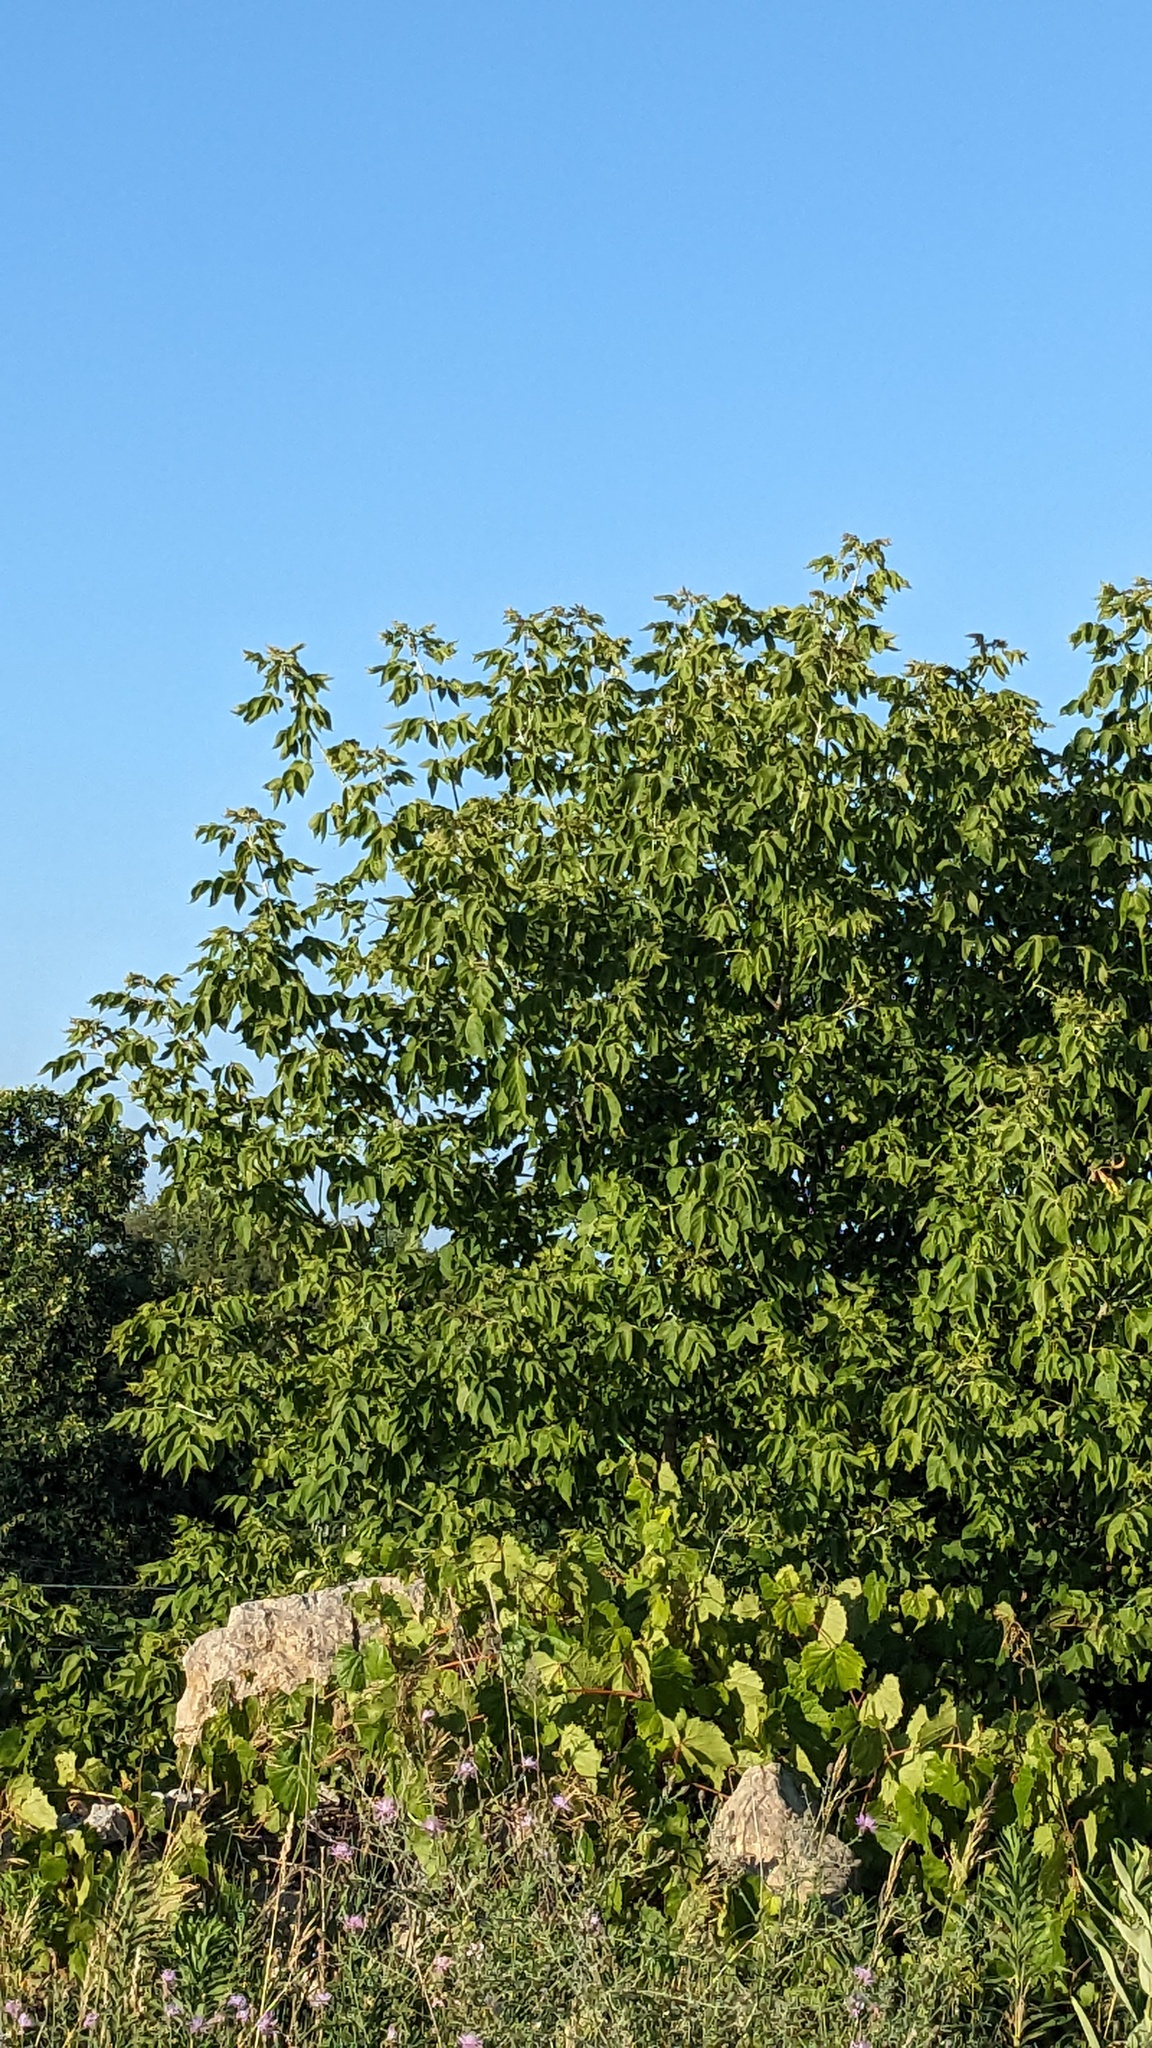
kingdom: Plantae
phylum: Tracheophyta
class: Magnoliopsida
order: Sapindales
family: Sapindaceae
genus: Acer
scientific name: Acer negundo
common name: Ashleaf maple
